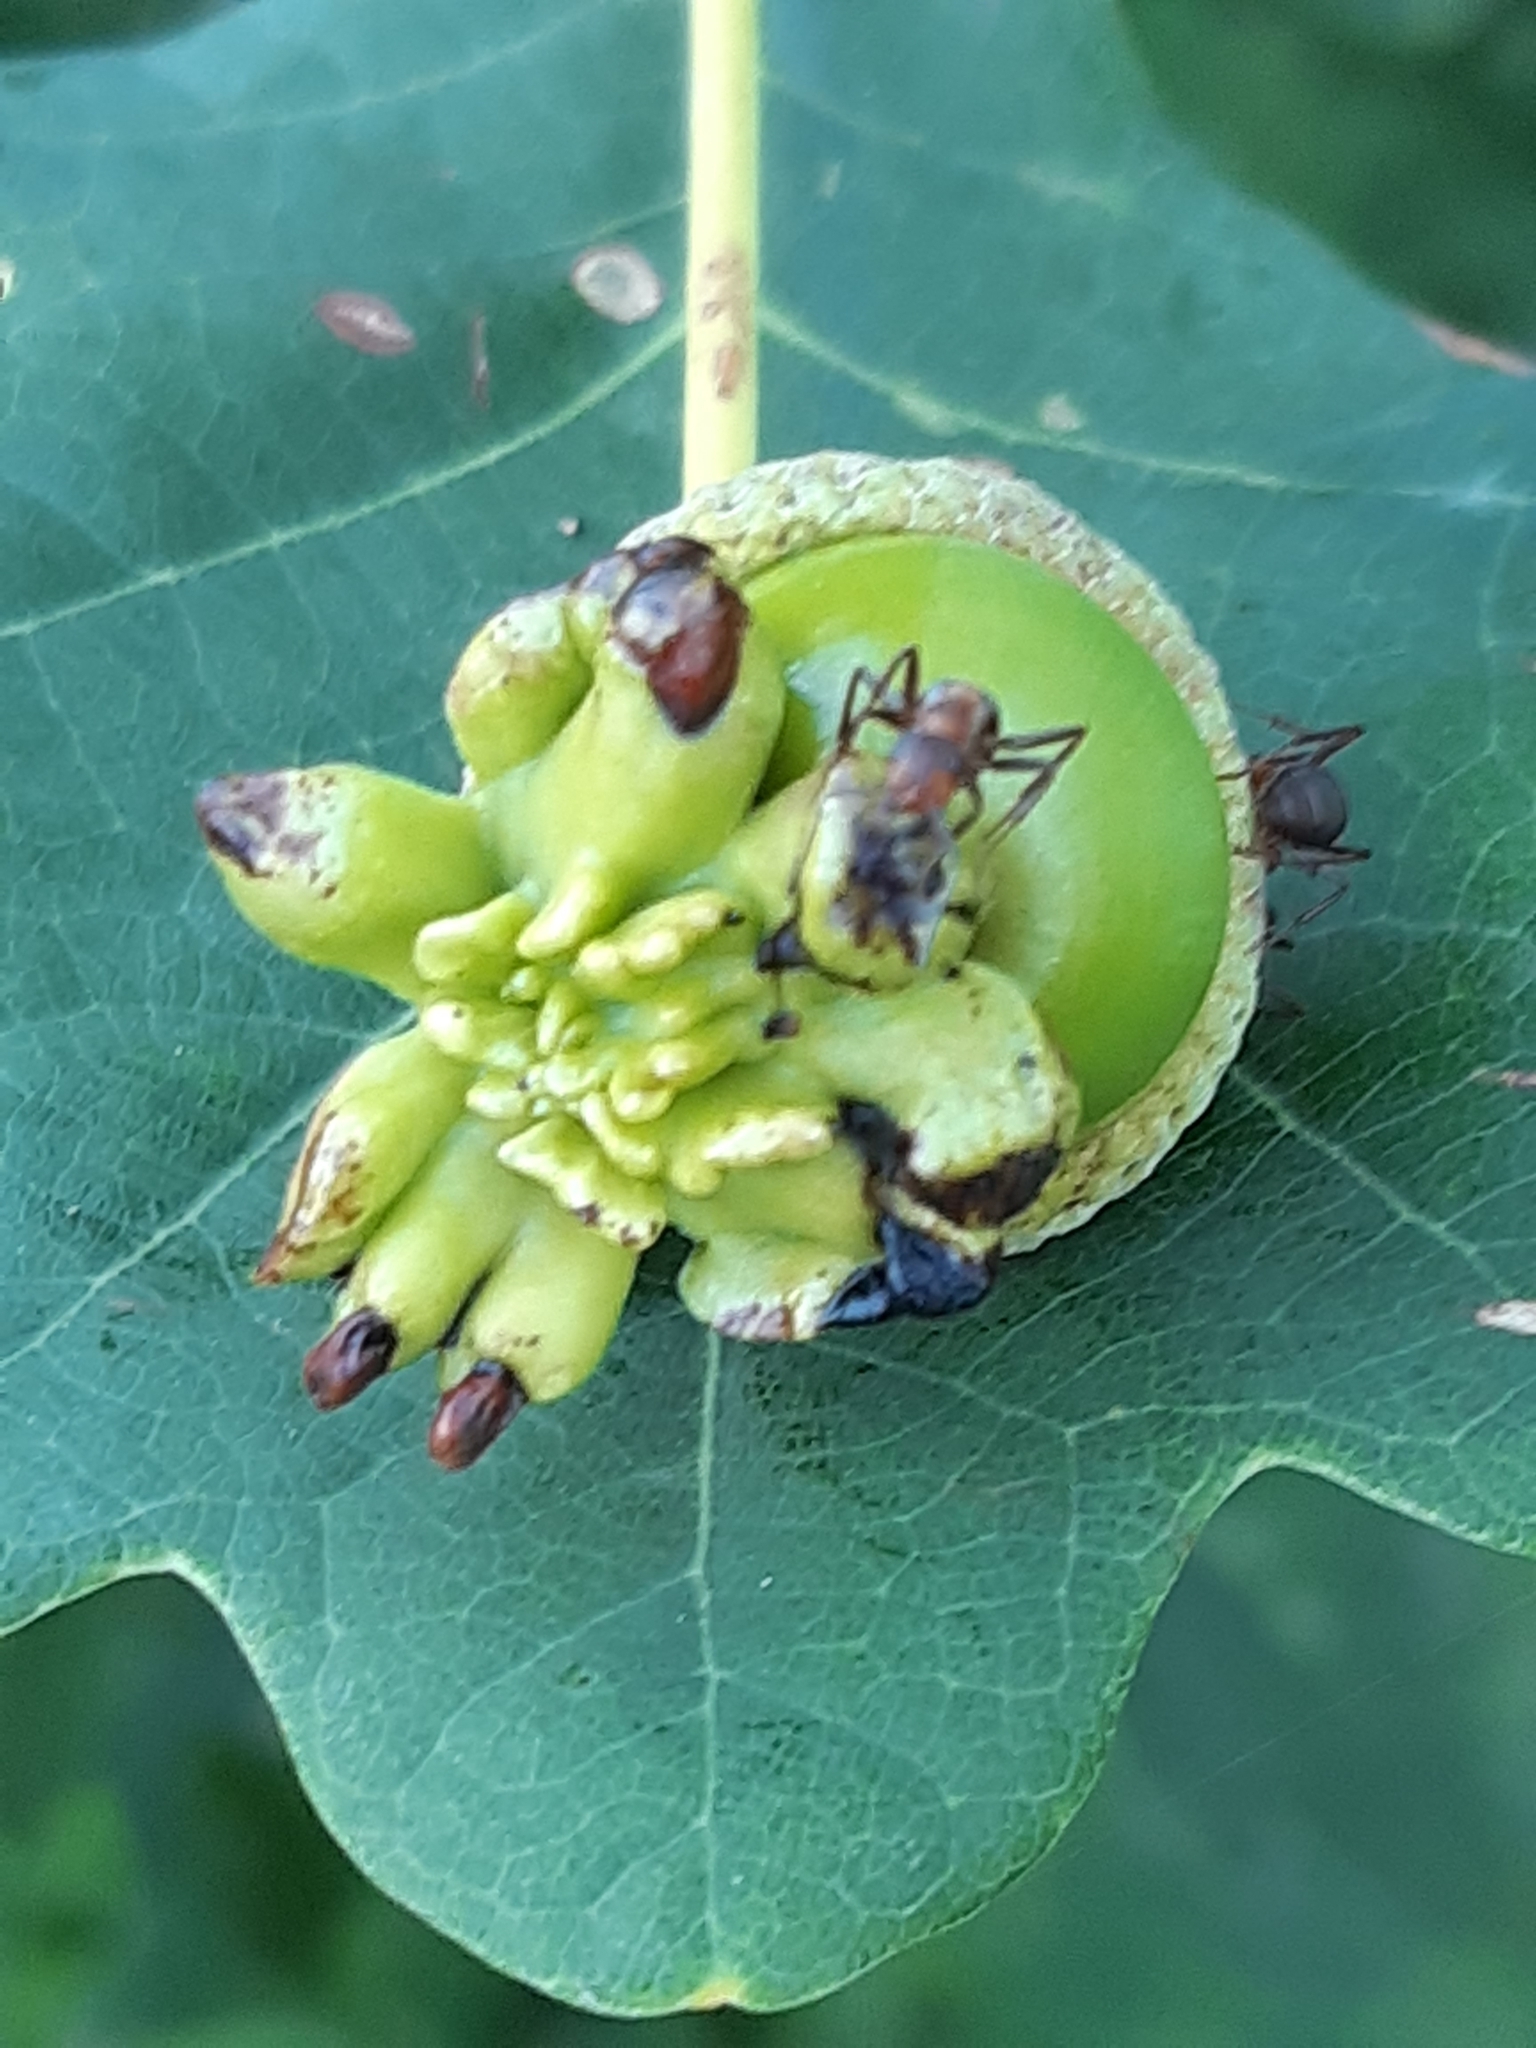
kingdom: Animalia
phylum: Arthropoda
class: Insecta
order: Hymenoptera
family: Cynipidae
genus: Andricus
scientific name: Andricus quercuscalicis
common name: Knopper gall
